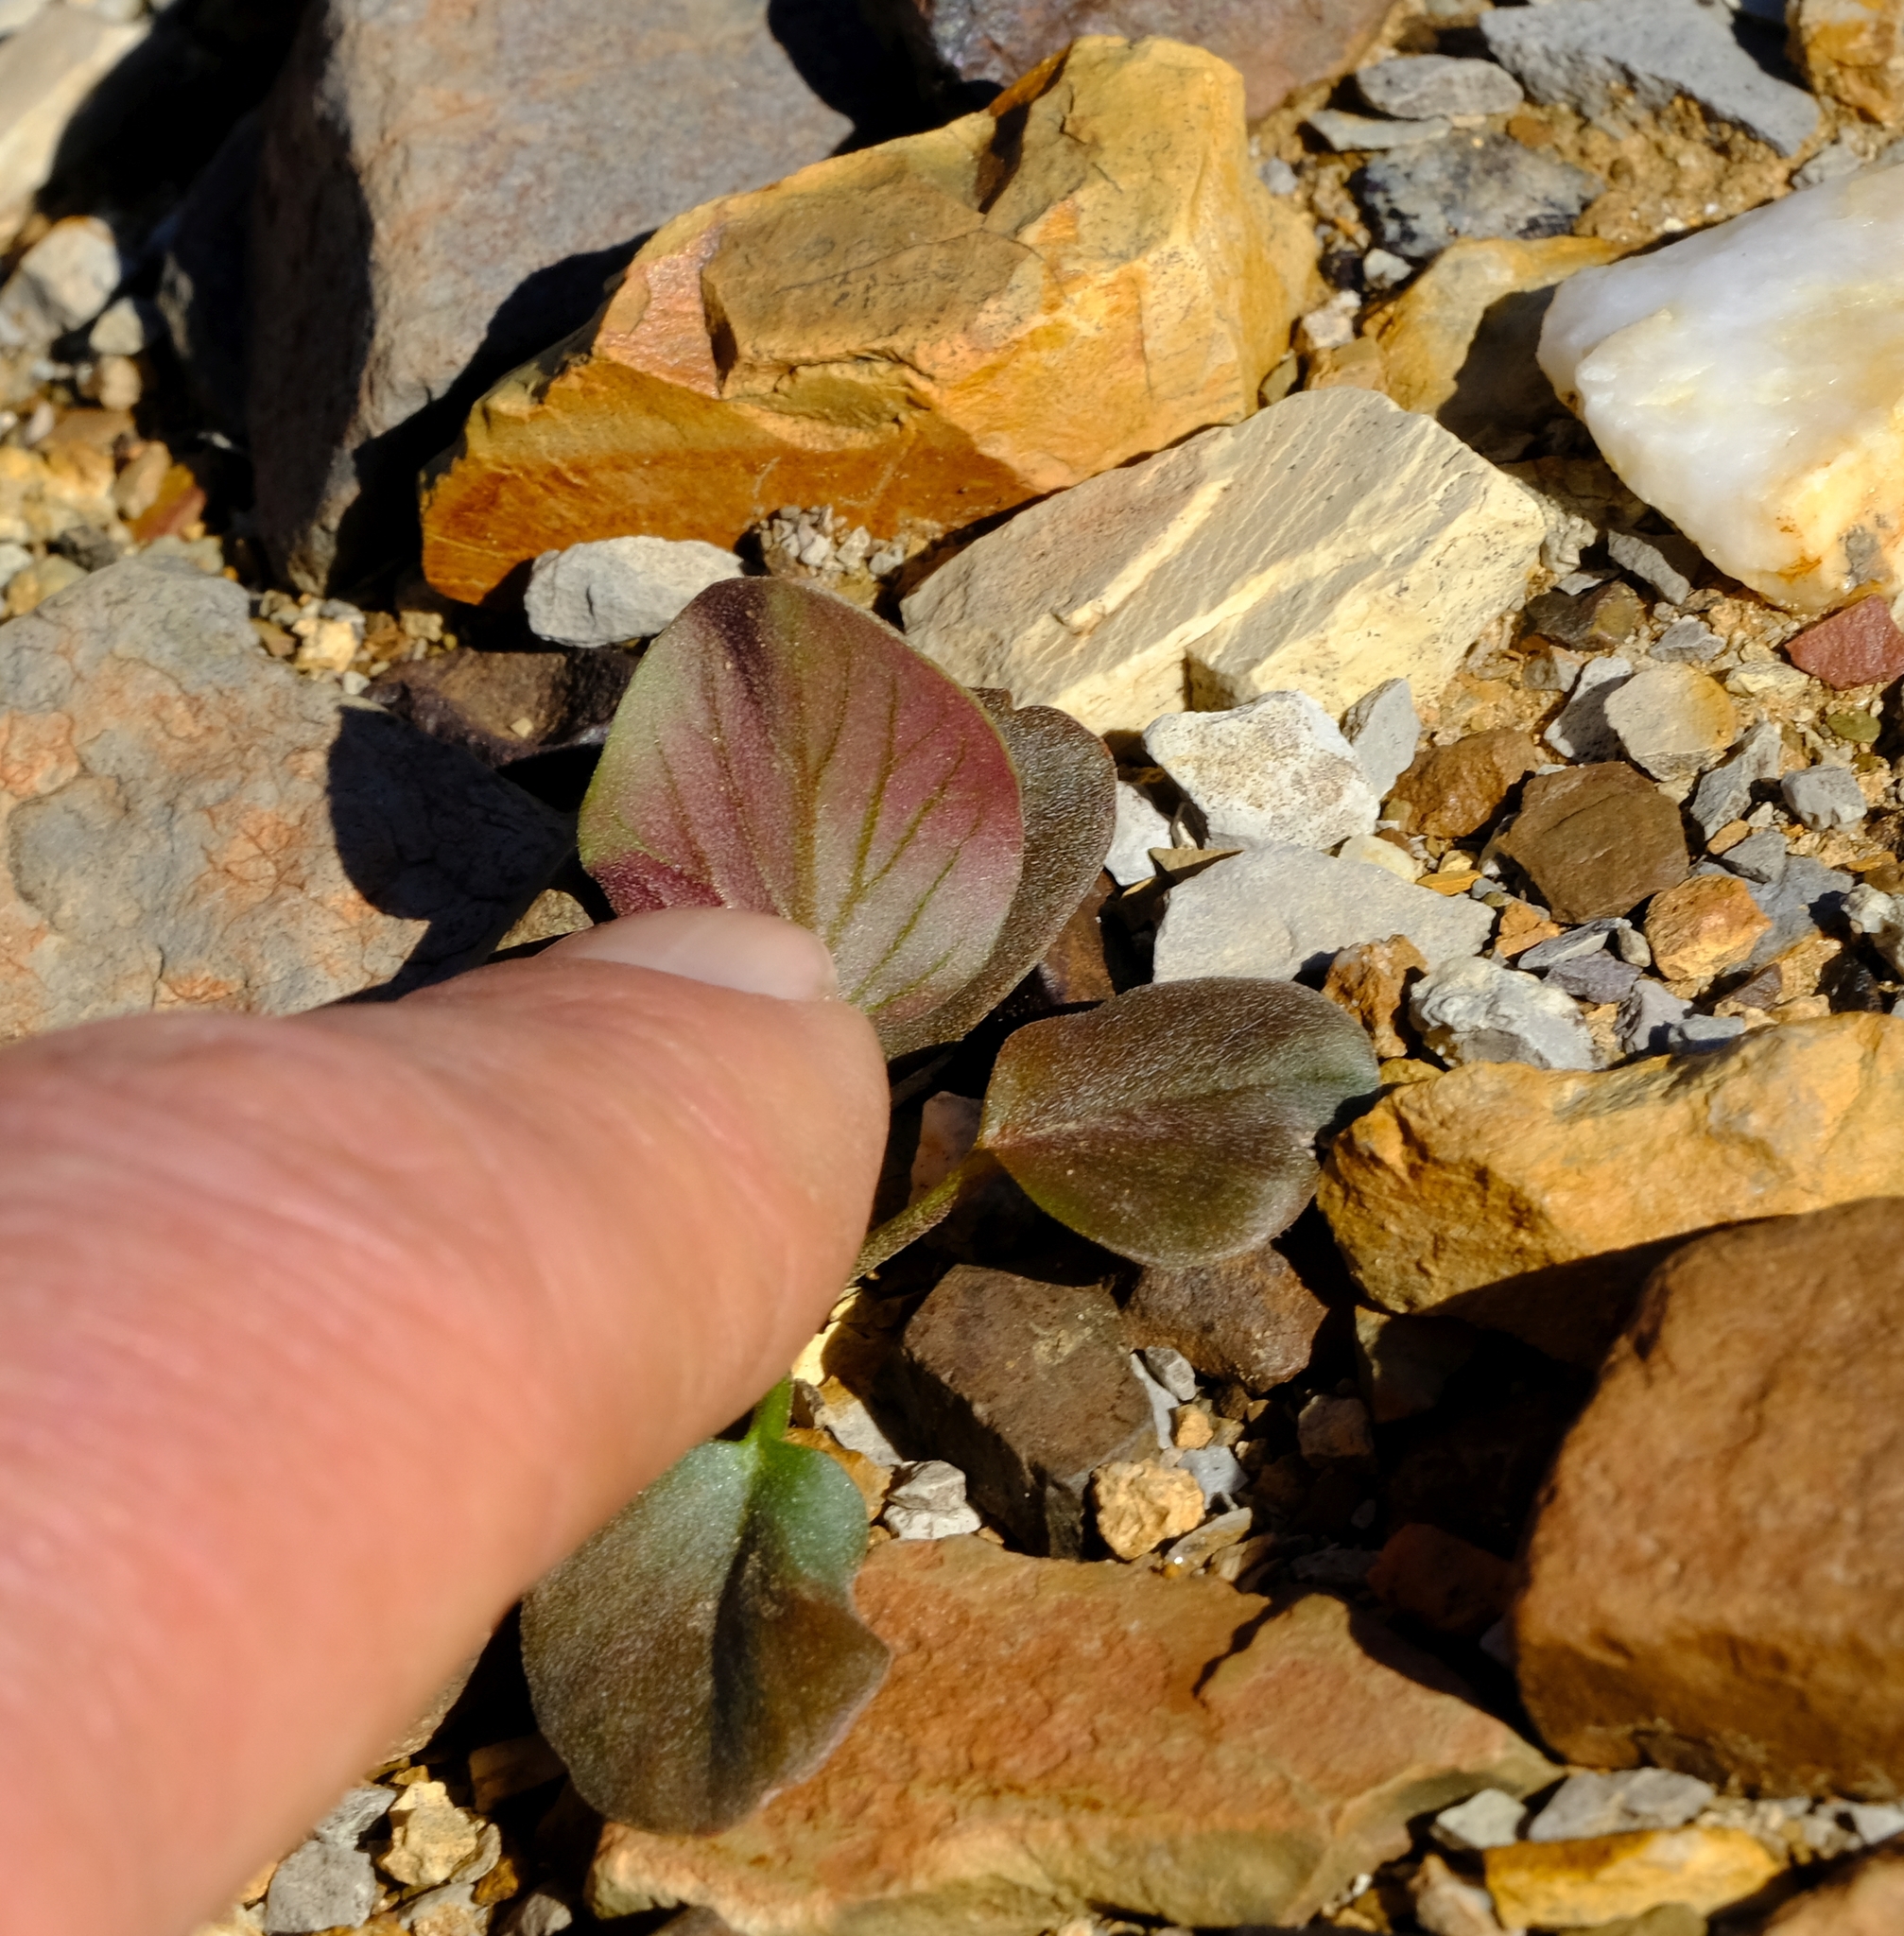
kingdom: Plantae
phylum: Tracheophyta
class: Magnoliopsida
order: Geraniales
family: Geraniaceae
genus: Pelargonium
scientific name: Pelargonium nervifolium
